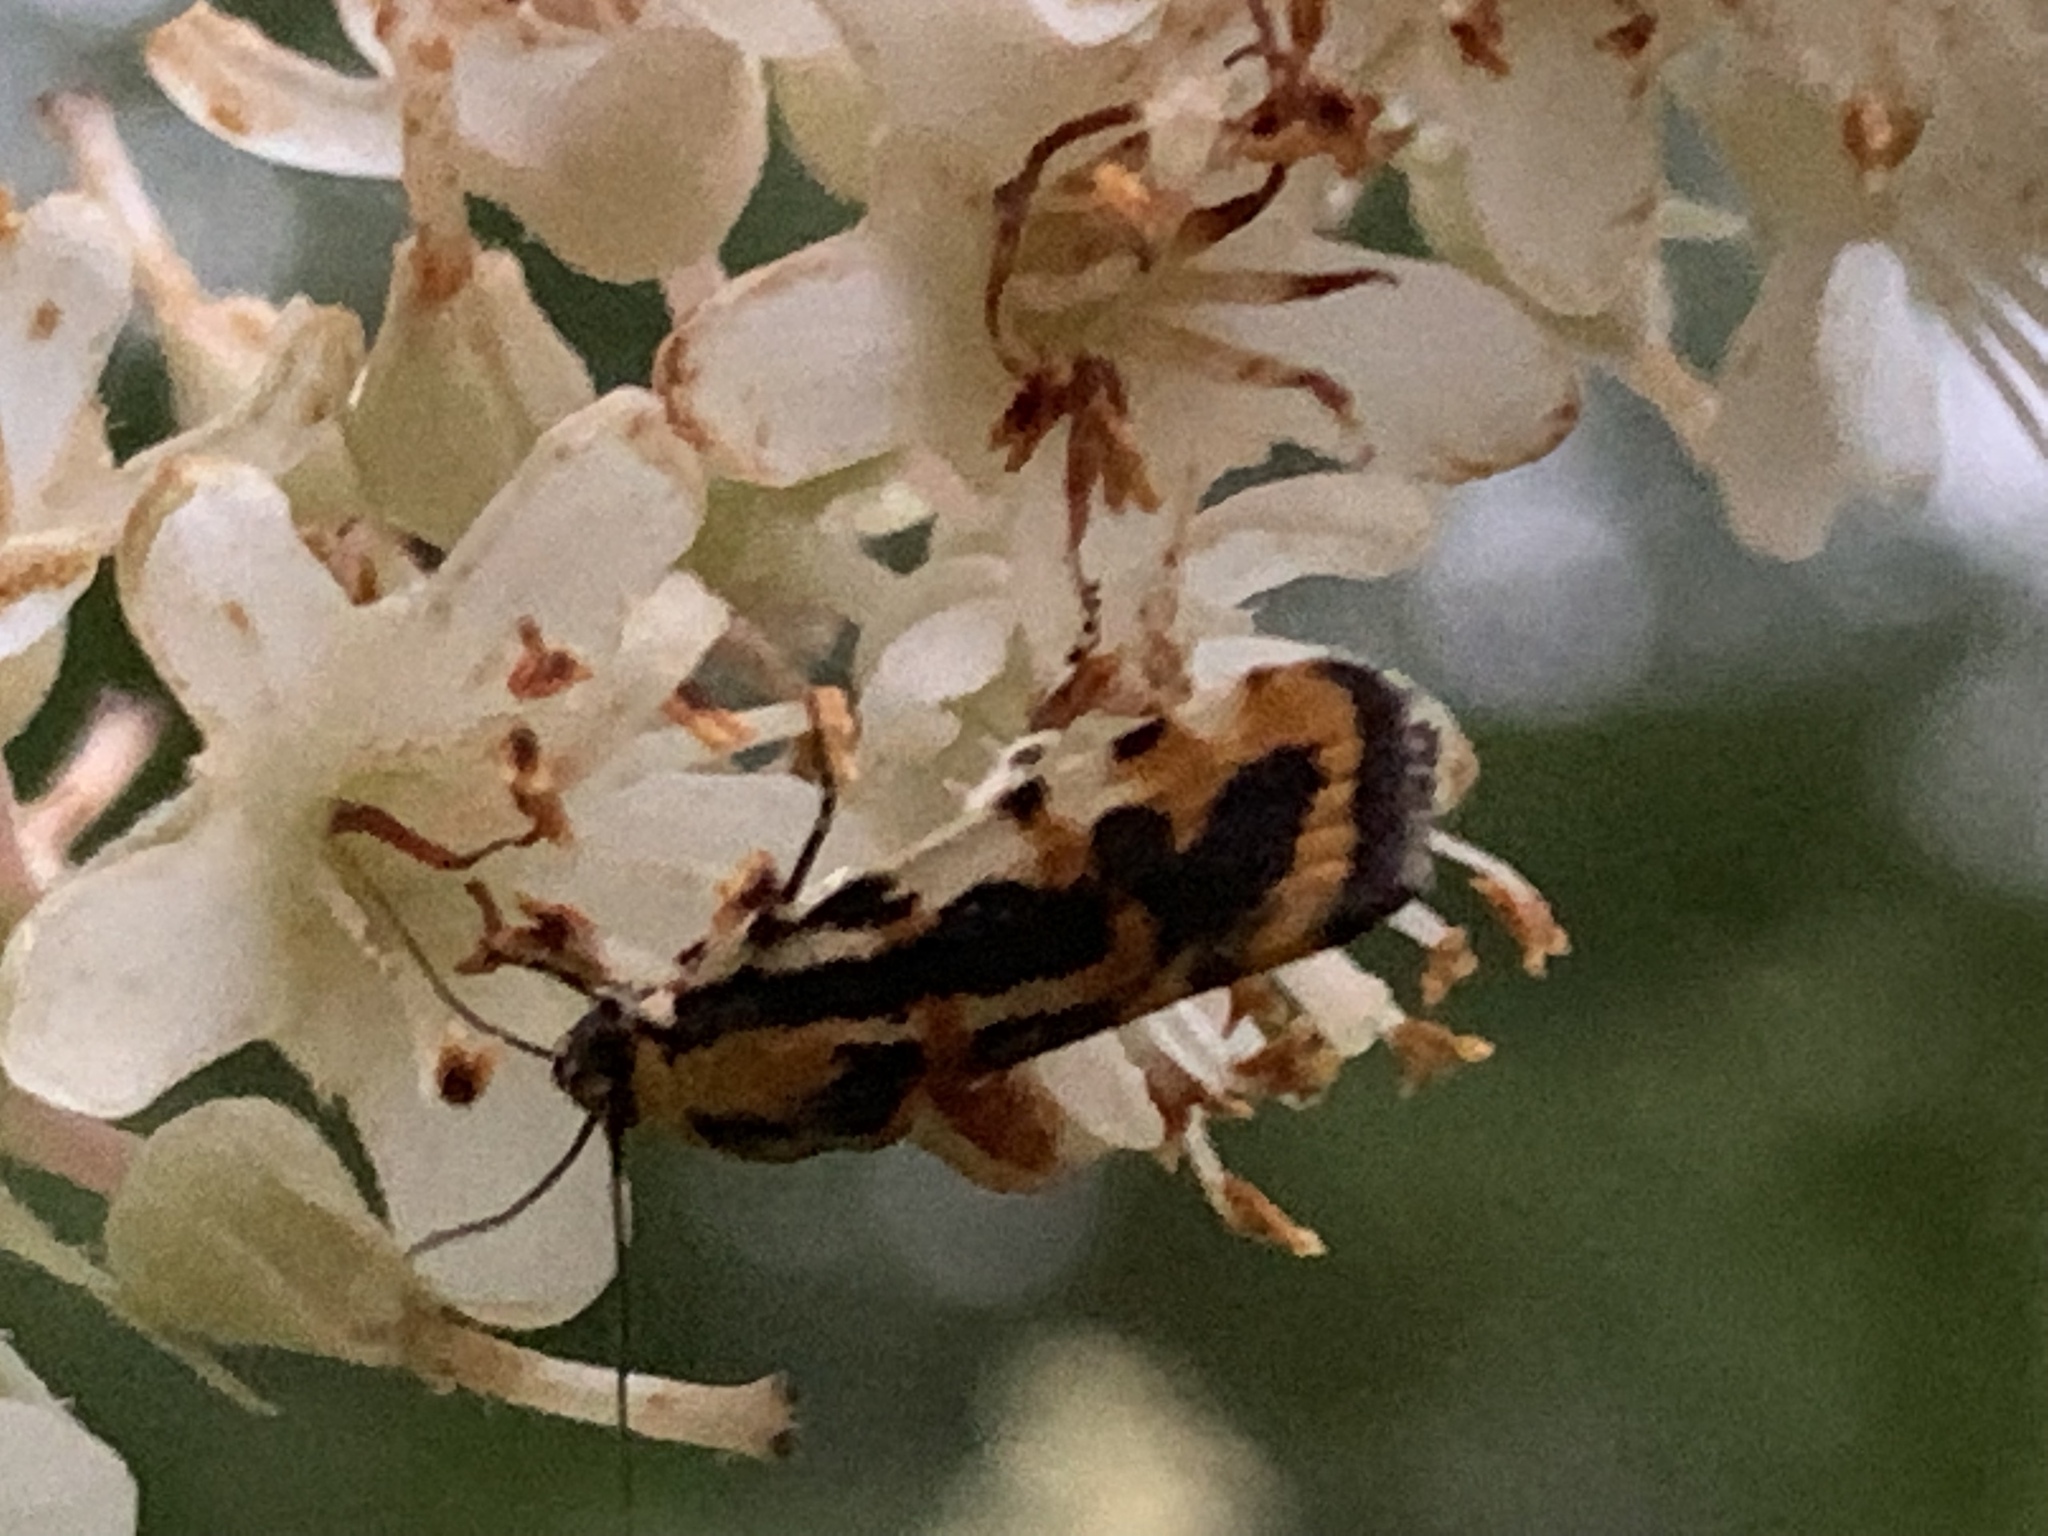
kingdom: Animalia
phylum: Arthropoda
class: Insecta
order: Lepidoptera
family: Noctuidae
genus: Acontia
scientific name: Acontia leo
